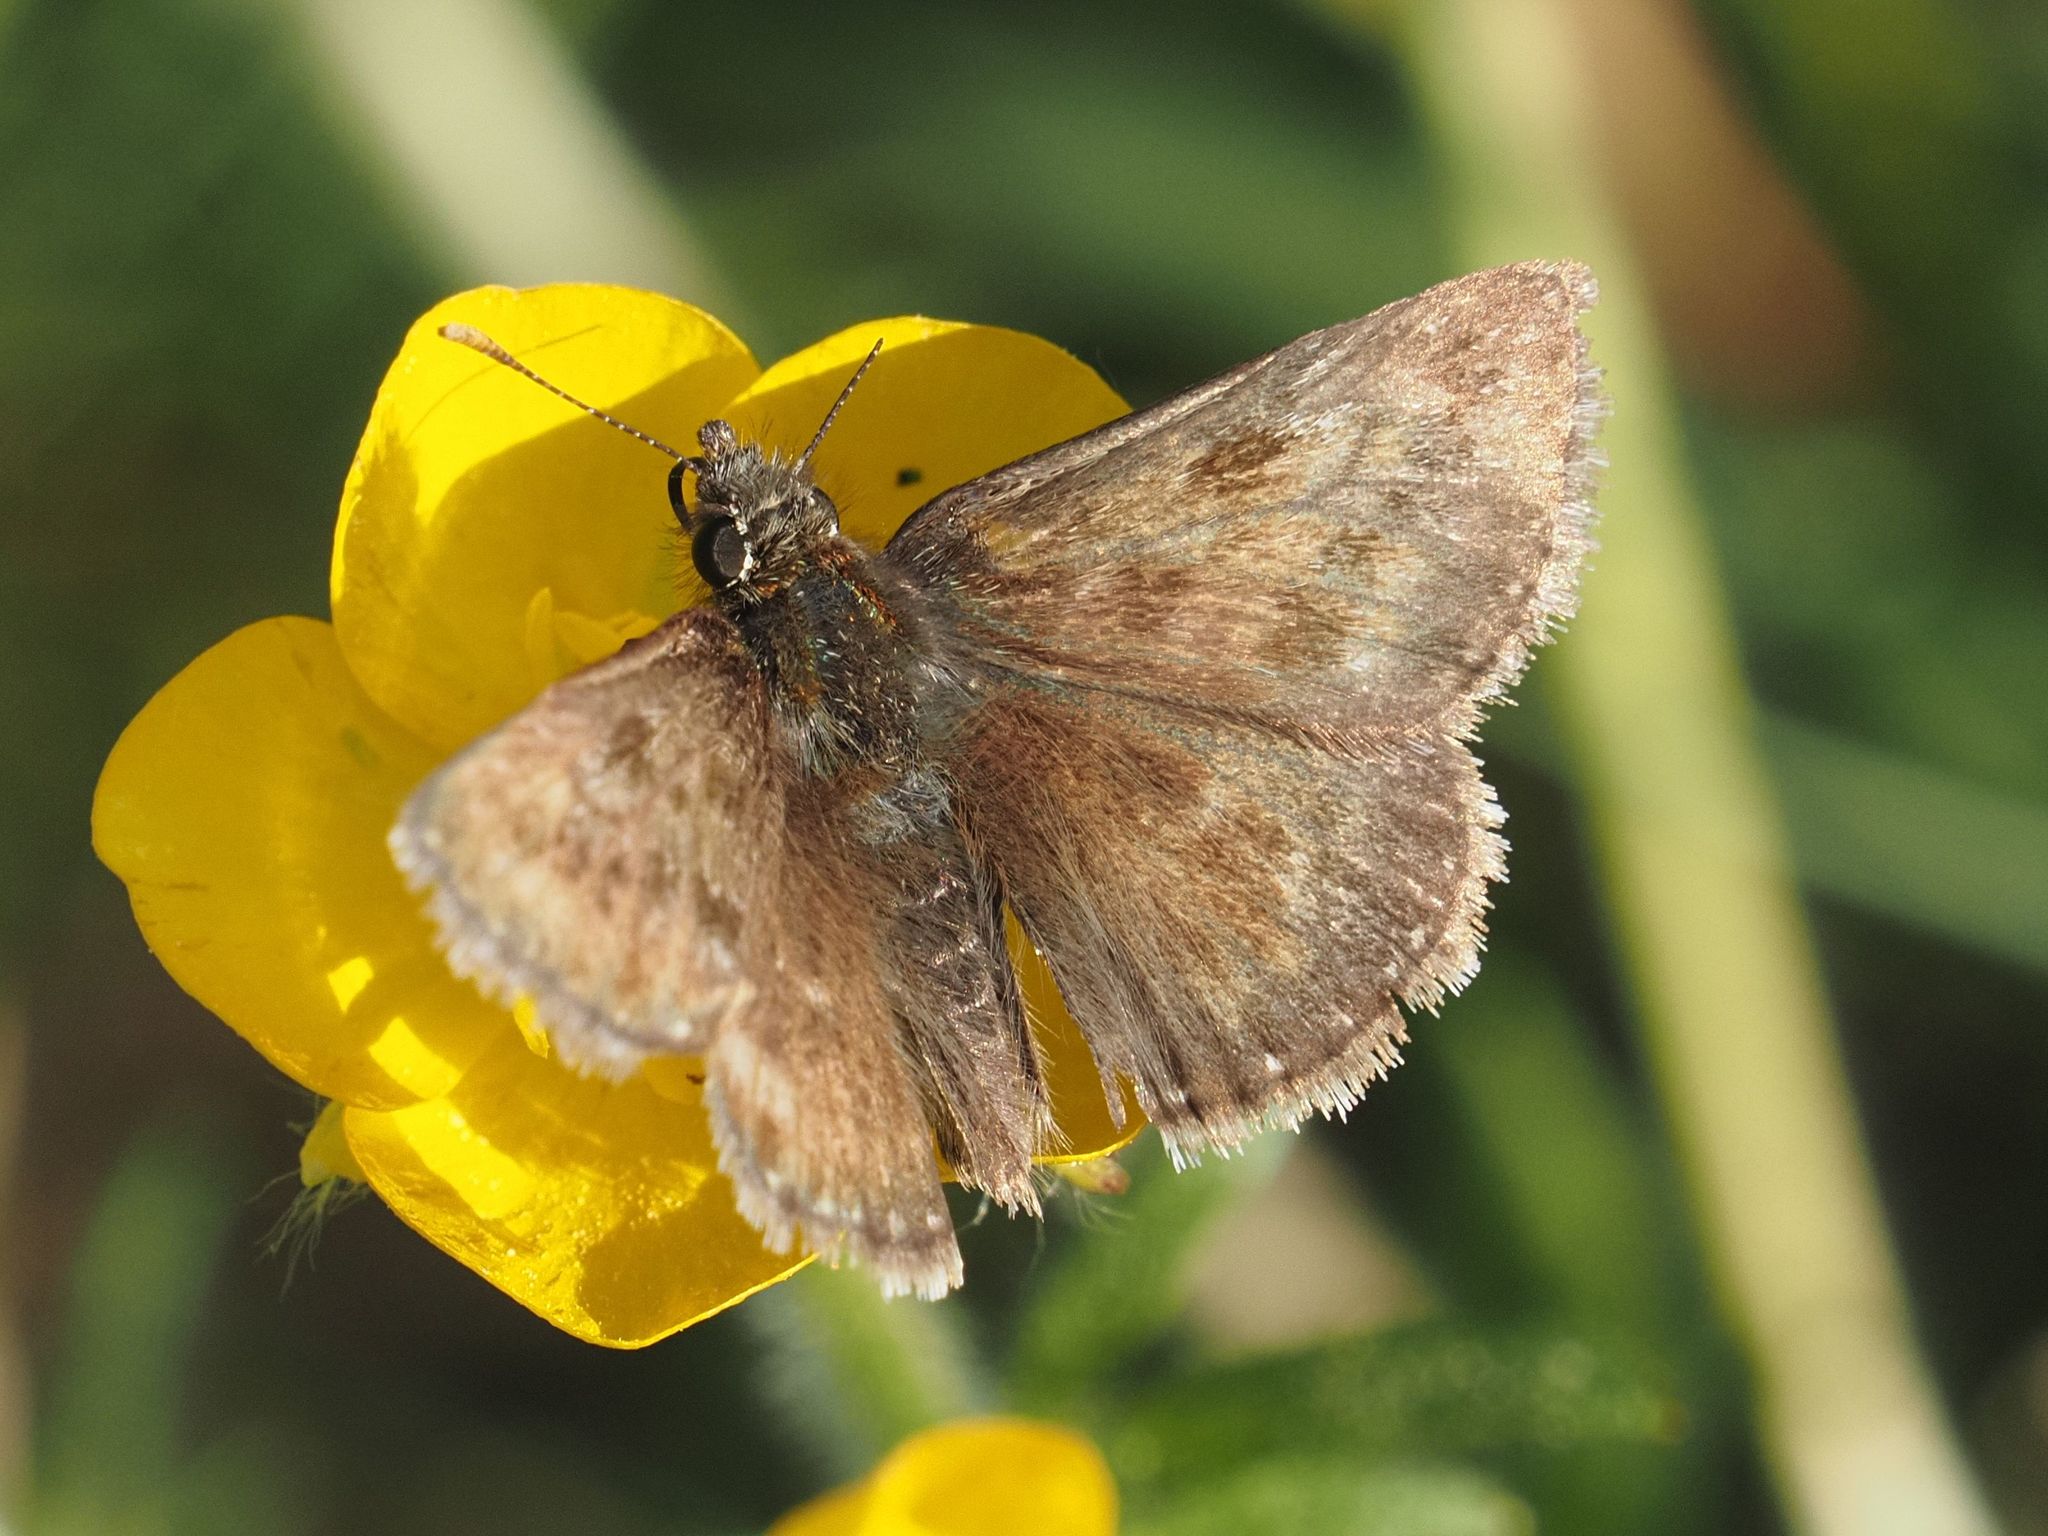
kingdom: Animalia
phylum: Arthropoda
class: Insecta
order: Lepidoptera
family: Hesperiidae
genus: Erynnis
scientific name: Erynnis tages
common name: Dingy skipper
